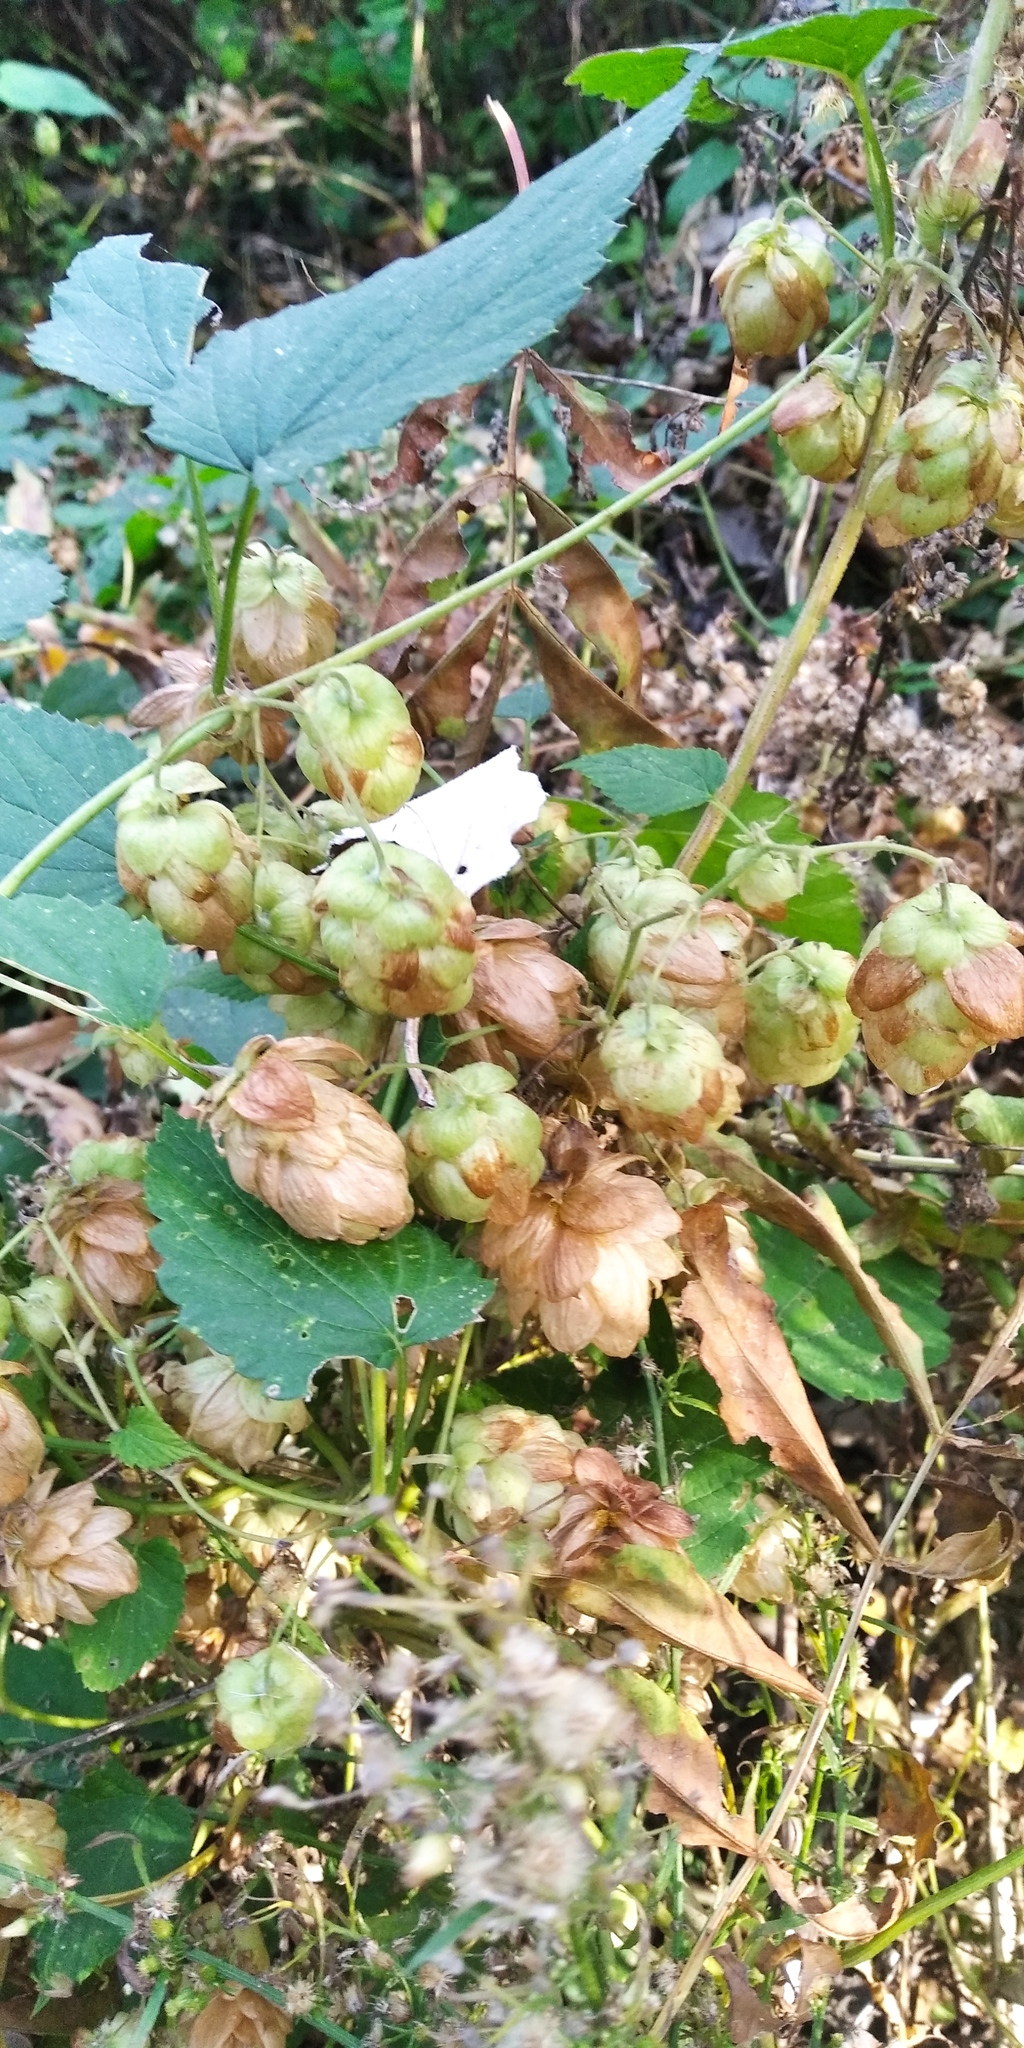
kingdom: Plantae
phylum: Tracheophyta
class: Magnoliopsida
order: Rosales
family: Cannabaceae
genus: Humulus
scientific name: Humulus lupulus
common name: Hop
